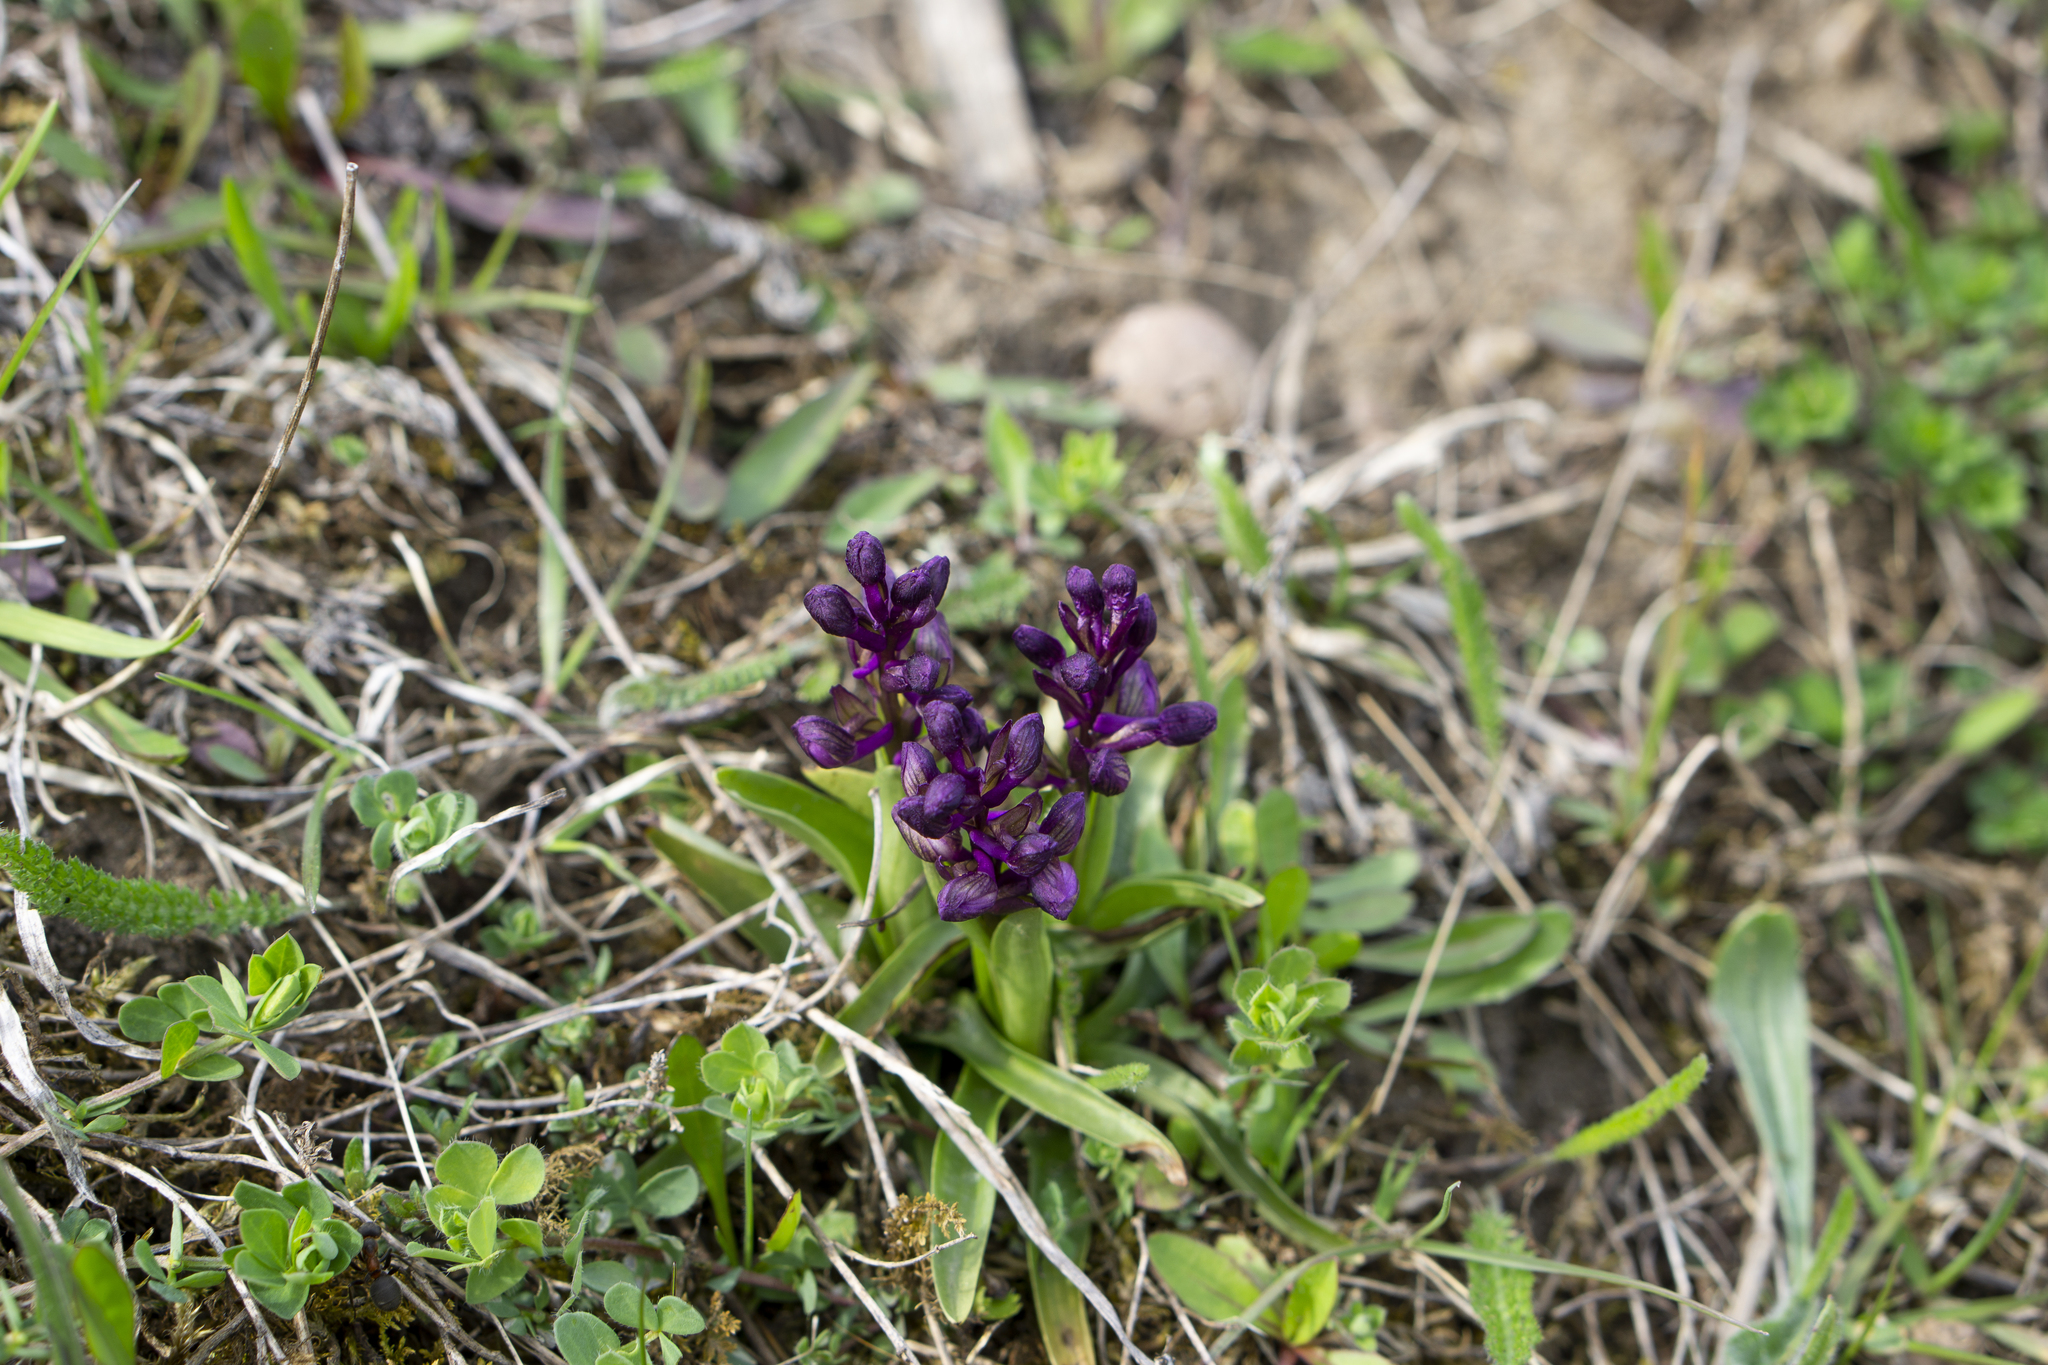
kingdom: Plantae
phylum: Tracheophyta
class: Liliopsida
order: Asparagales
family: Orchidaceae
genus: Anacamptis
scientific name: Anacamptis morio
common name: Green-winged orchid
